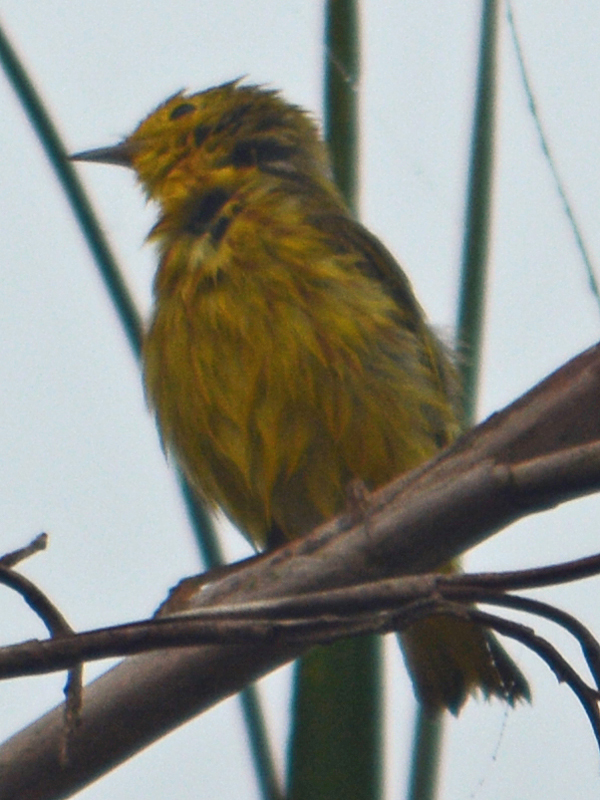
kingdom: Animalia
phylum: Chordata
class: Aves
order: Passeriformes
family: Parulidae
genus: Setophaga
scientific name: Setophaga petechia
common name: Yellow warbler
